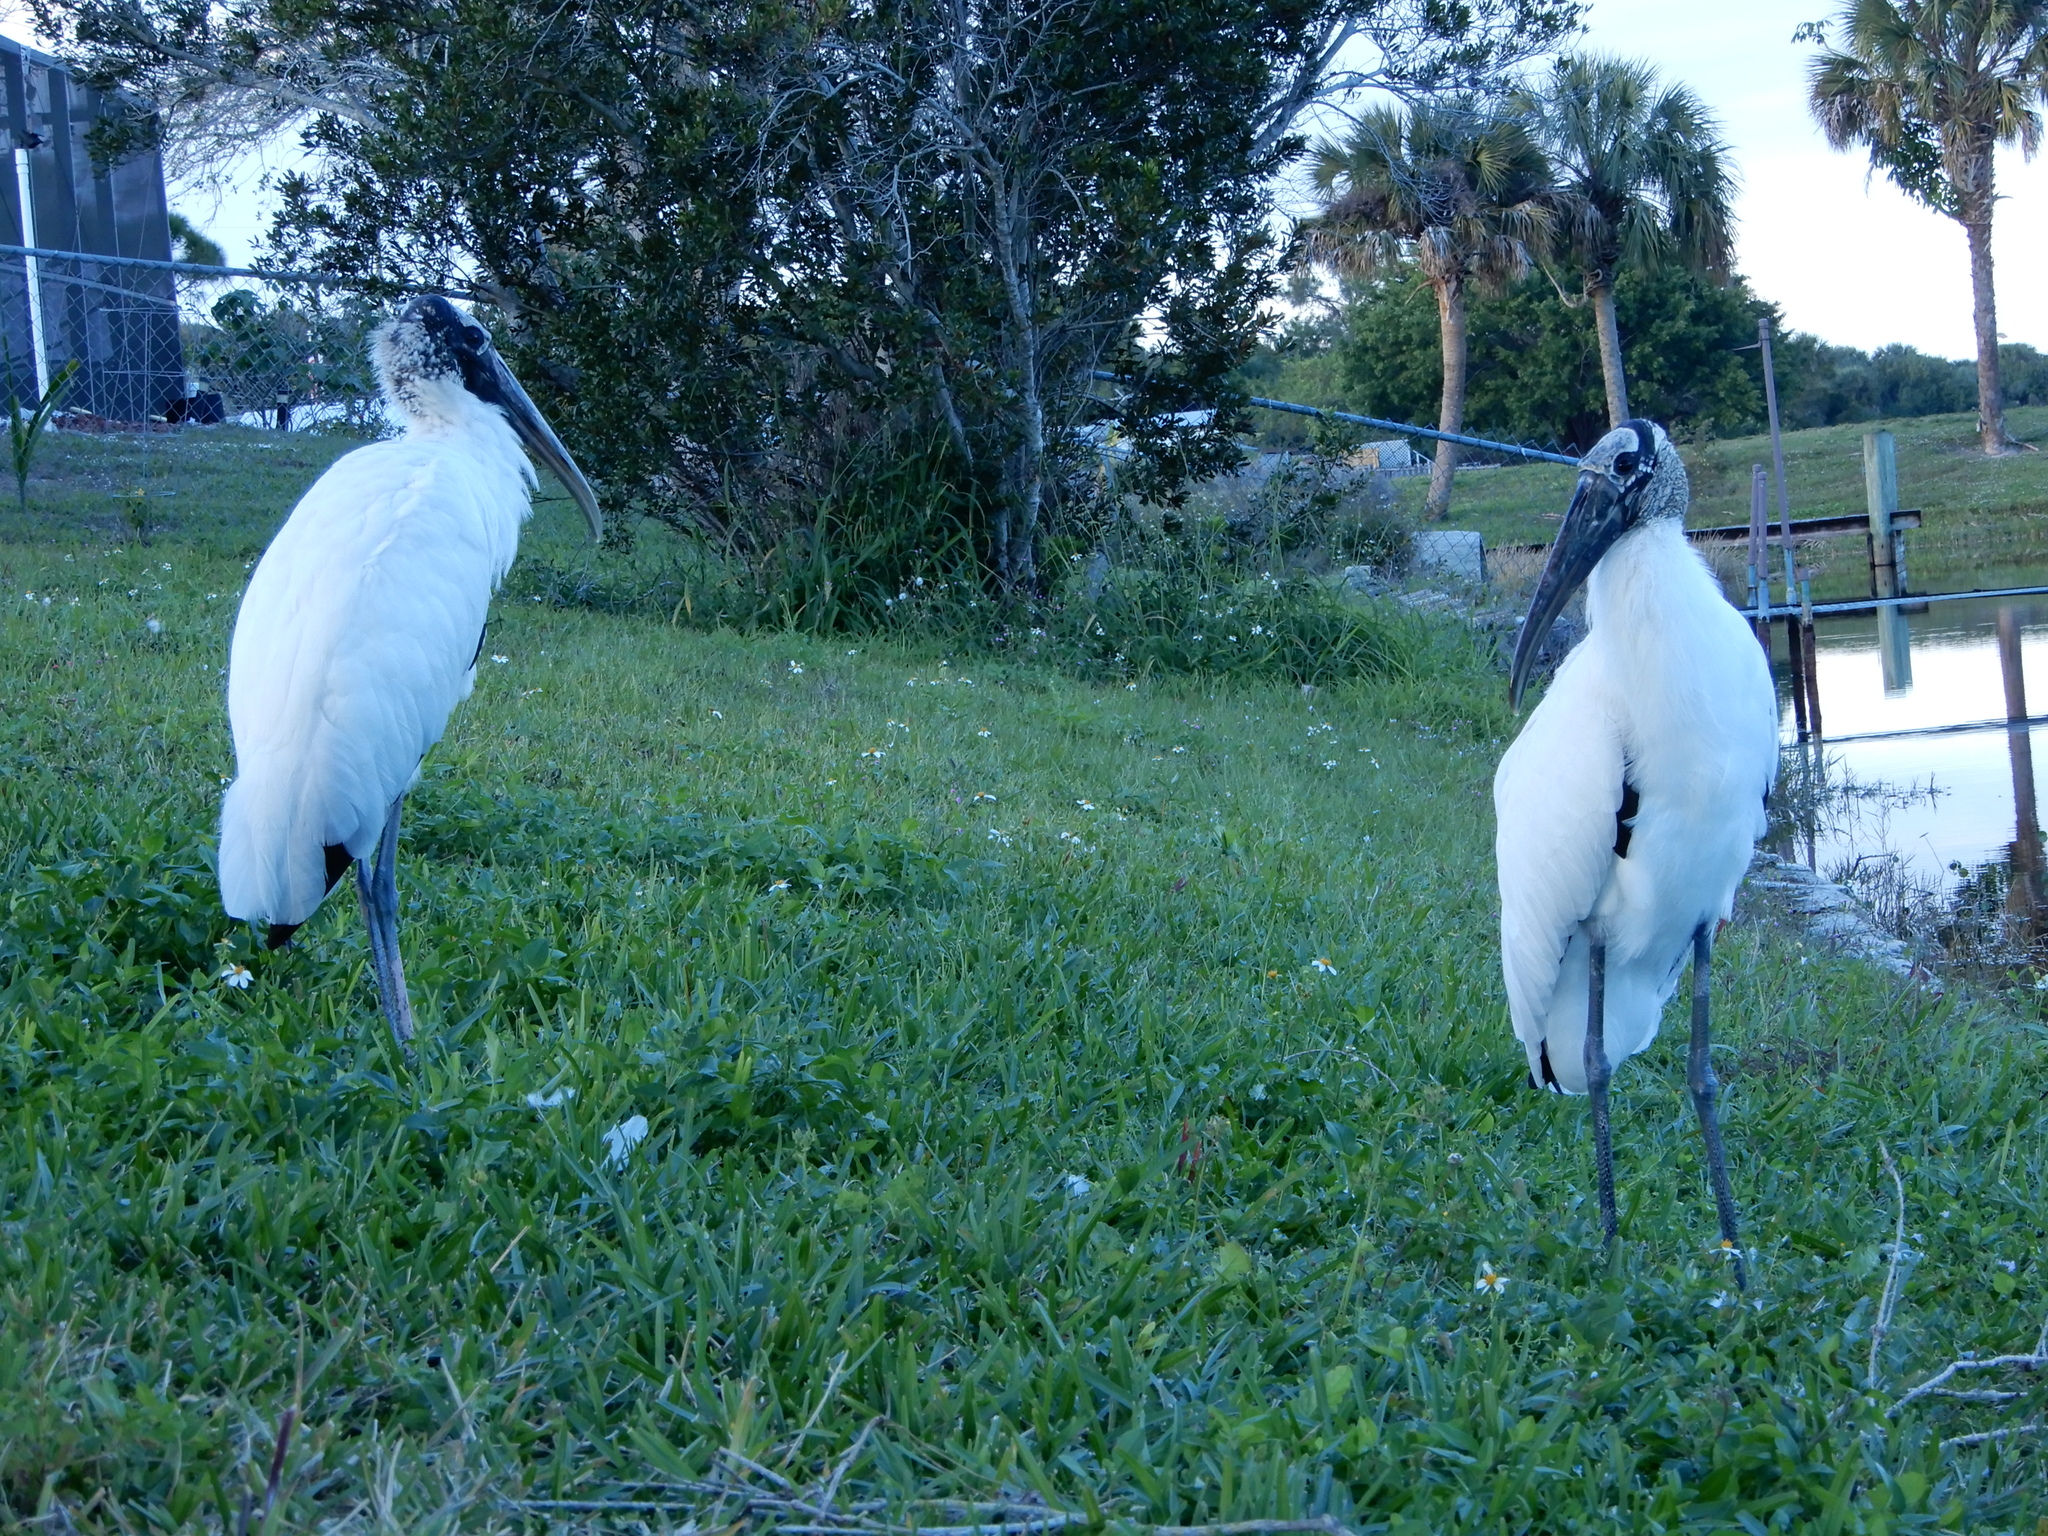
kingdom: Animalia
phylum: Chordata
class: Aves
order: Ciconiiformes
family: Ciconiidae
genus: Mycteria
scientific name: Mycteria americana
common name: Wood stork
